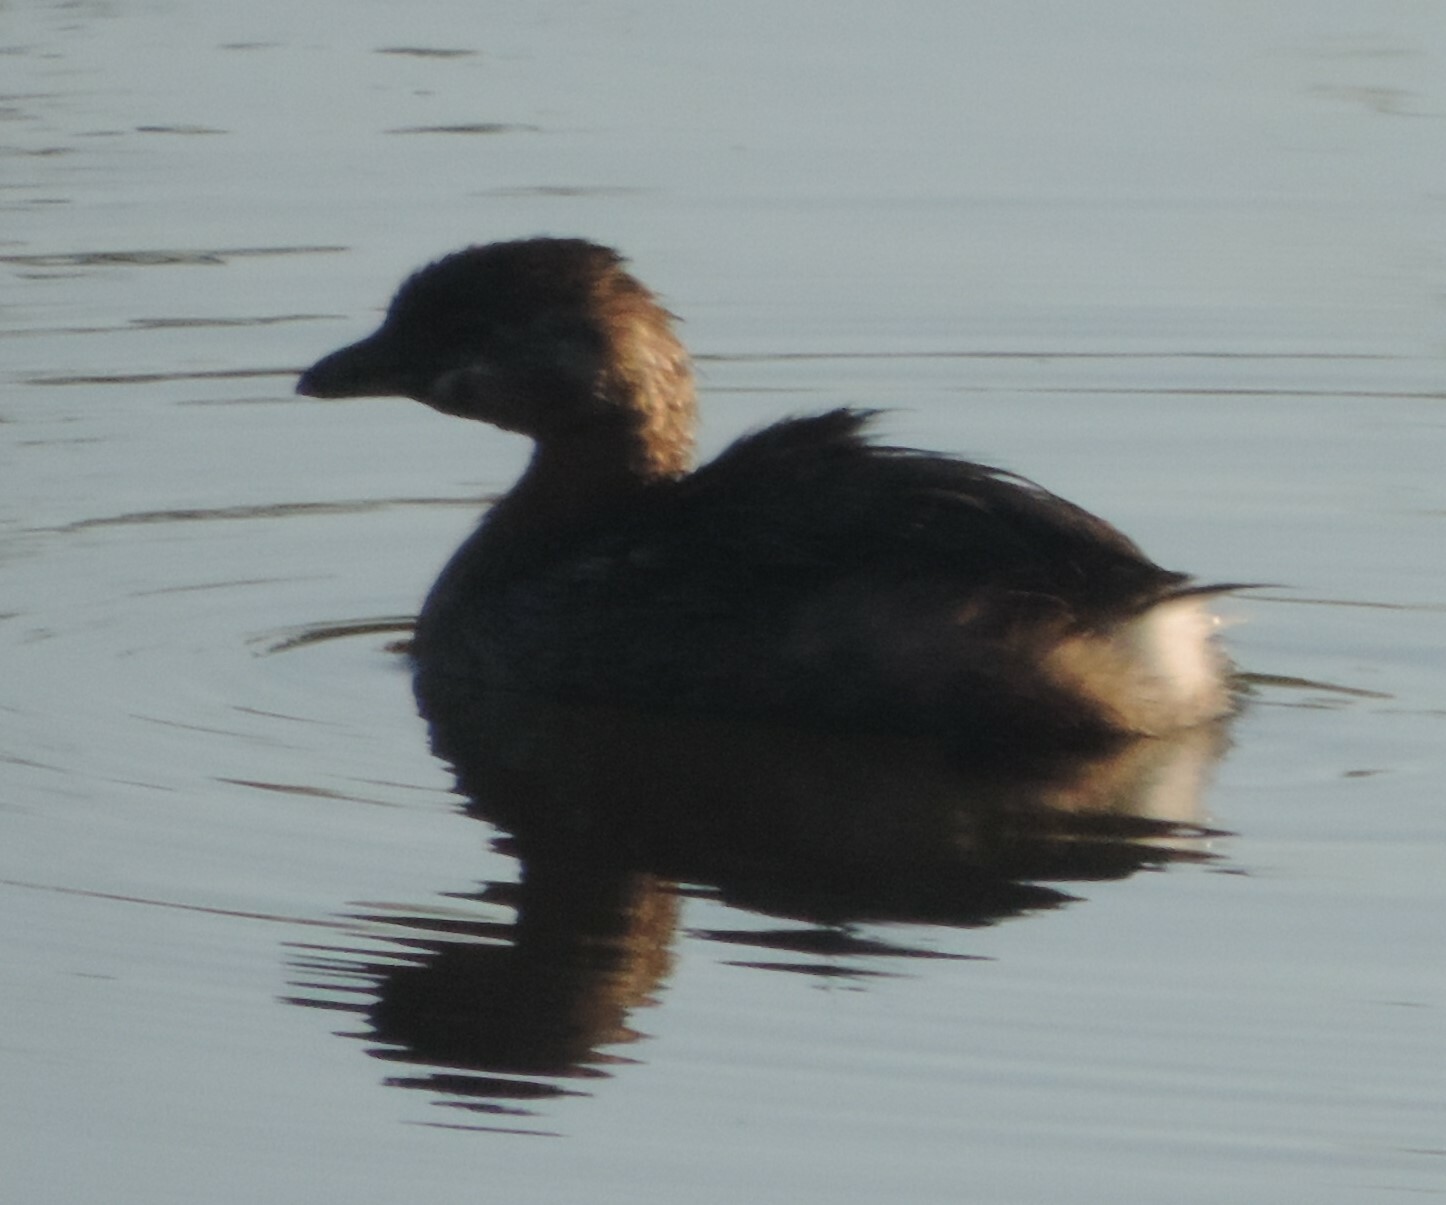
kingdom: Animalia
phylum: Chordata
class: Aves
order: Podicipediformes
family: Podicipedidae
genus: Podilymbus
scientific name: Podilymbus podiceps
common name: Pied-billed grebe
